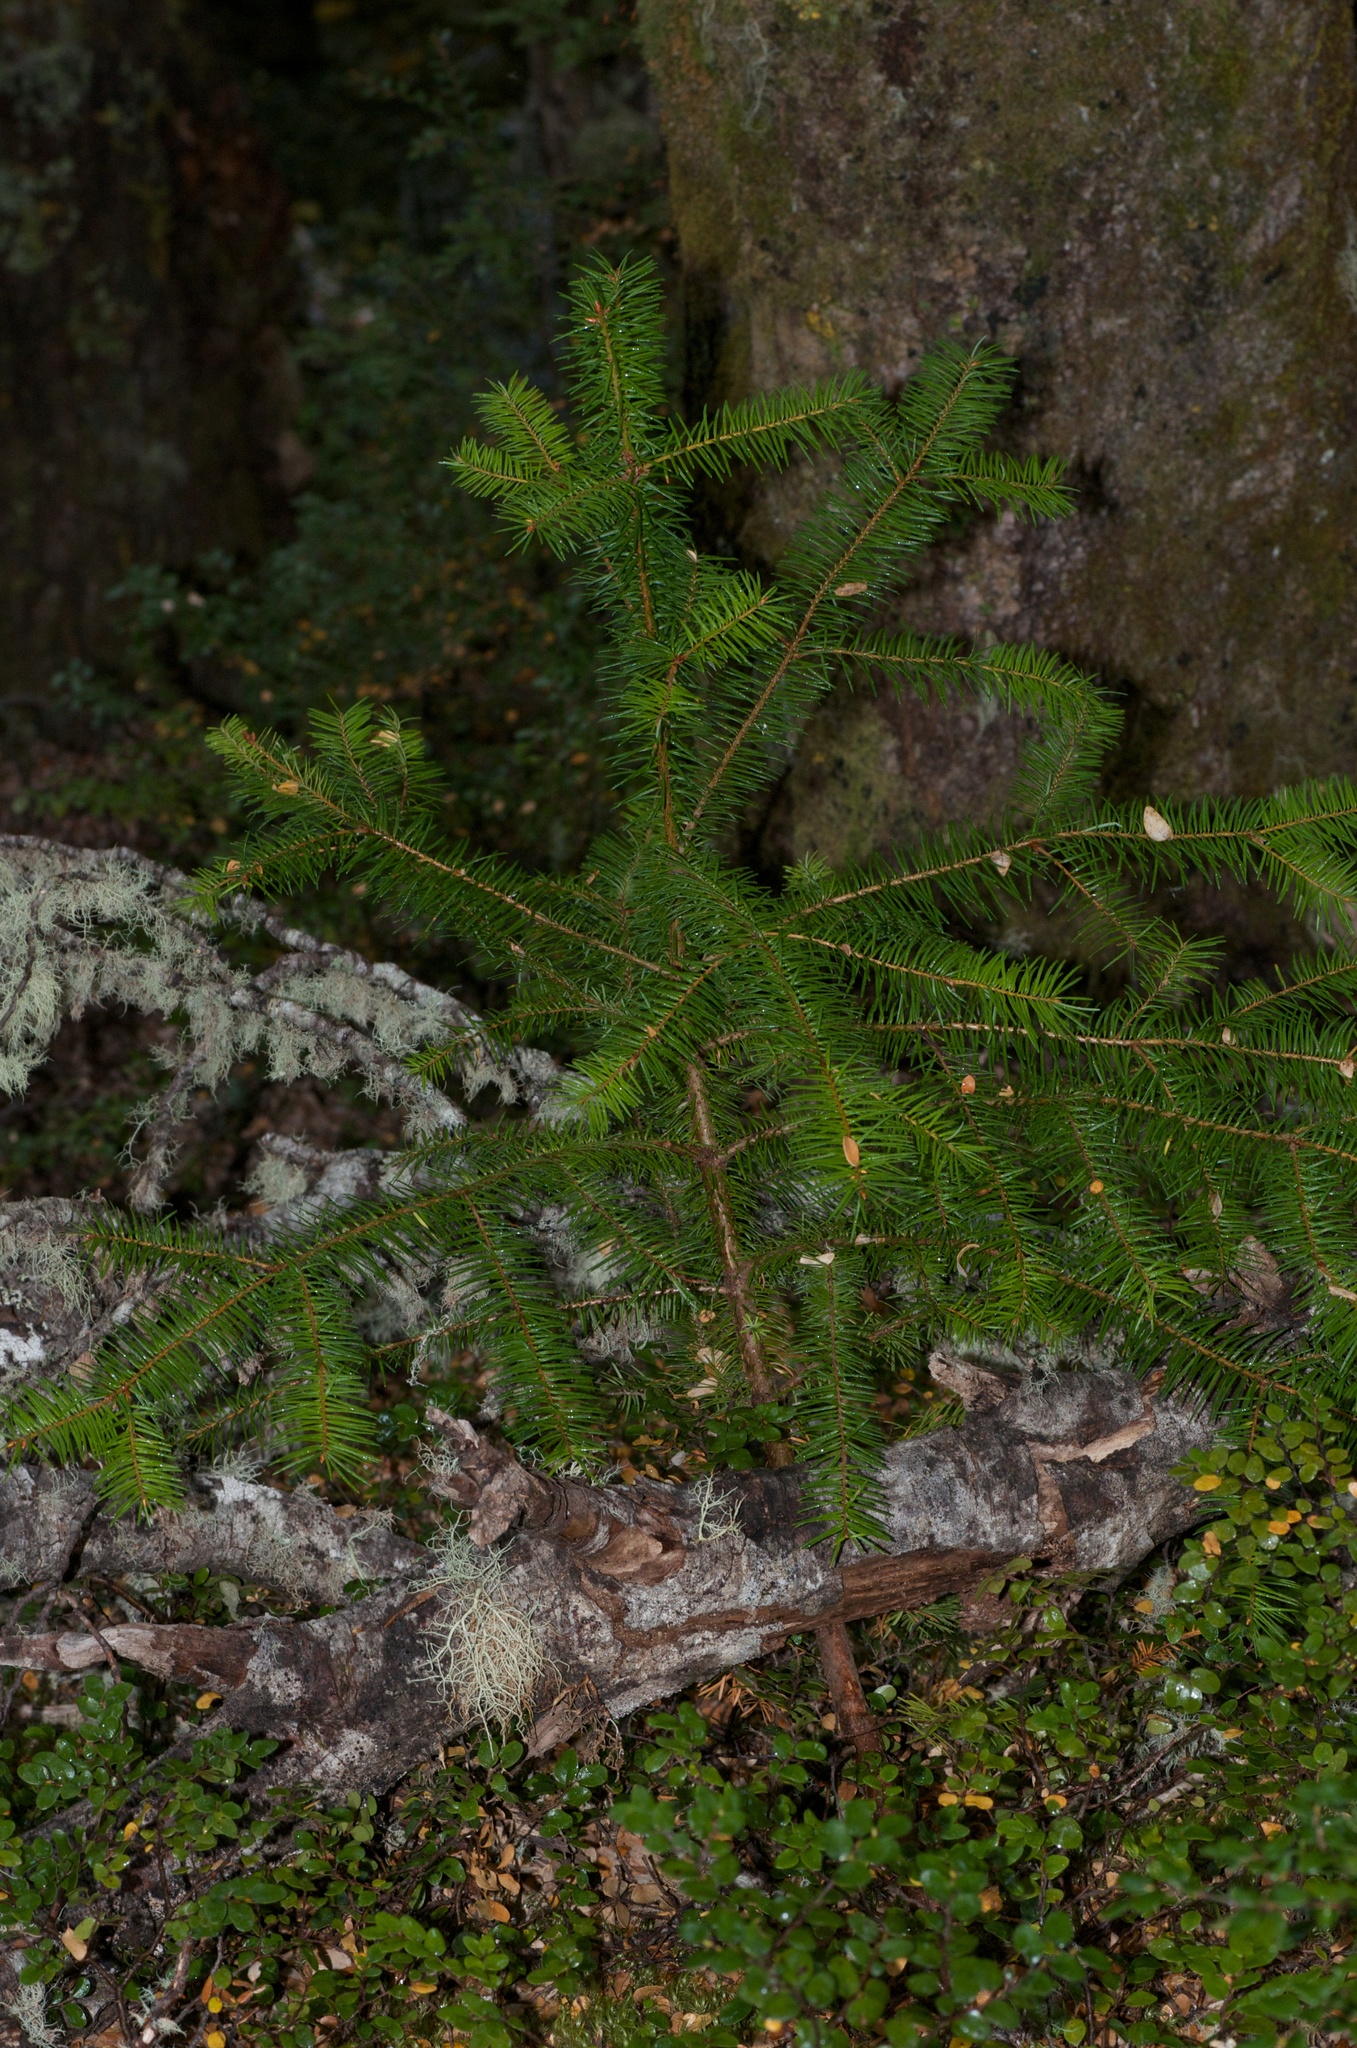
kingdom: Plantae
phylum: Tracheophyta
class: Pinopsida
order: Pinales
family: Pinaceae
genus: Pseudotsuga
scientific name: Pseudotsuga menziesii
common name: Douglas fir
